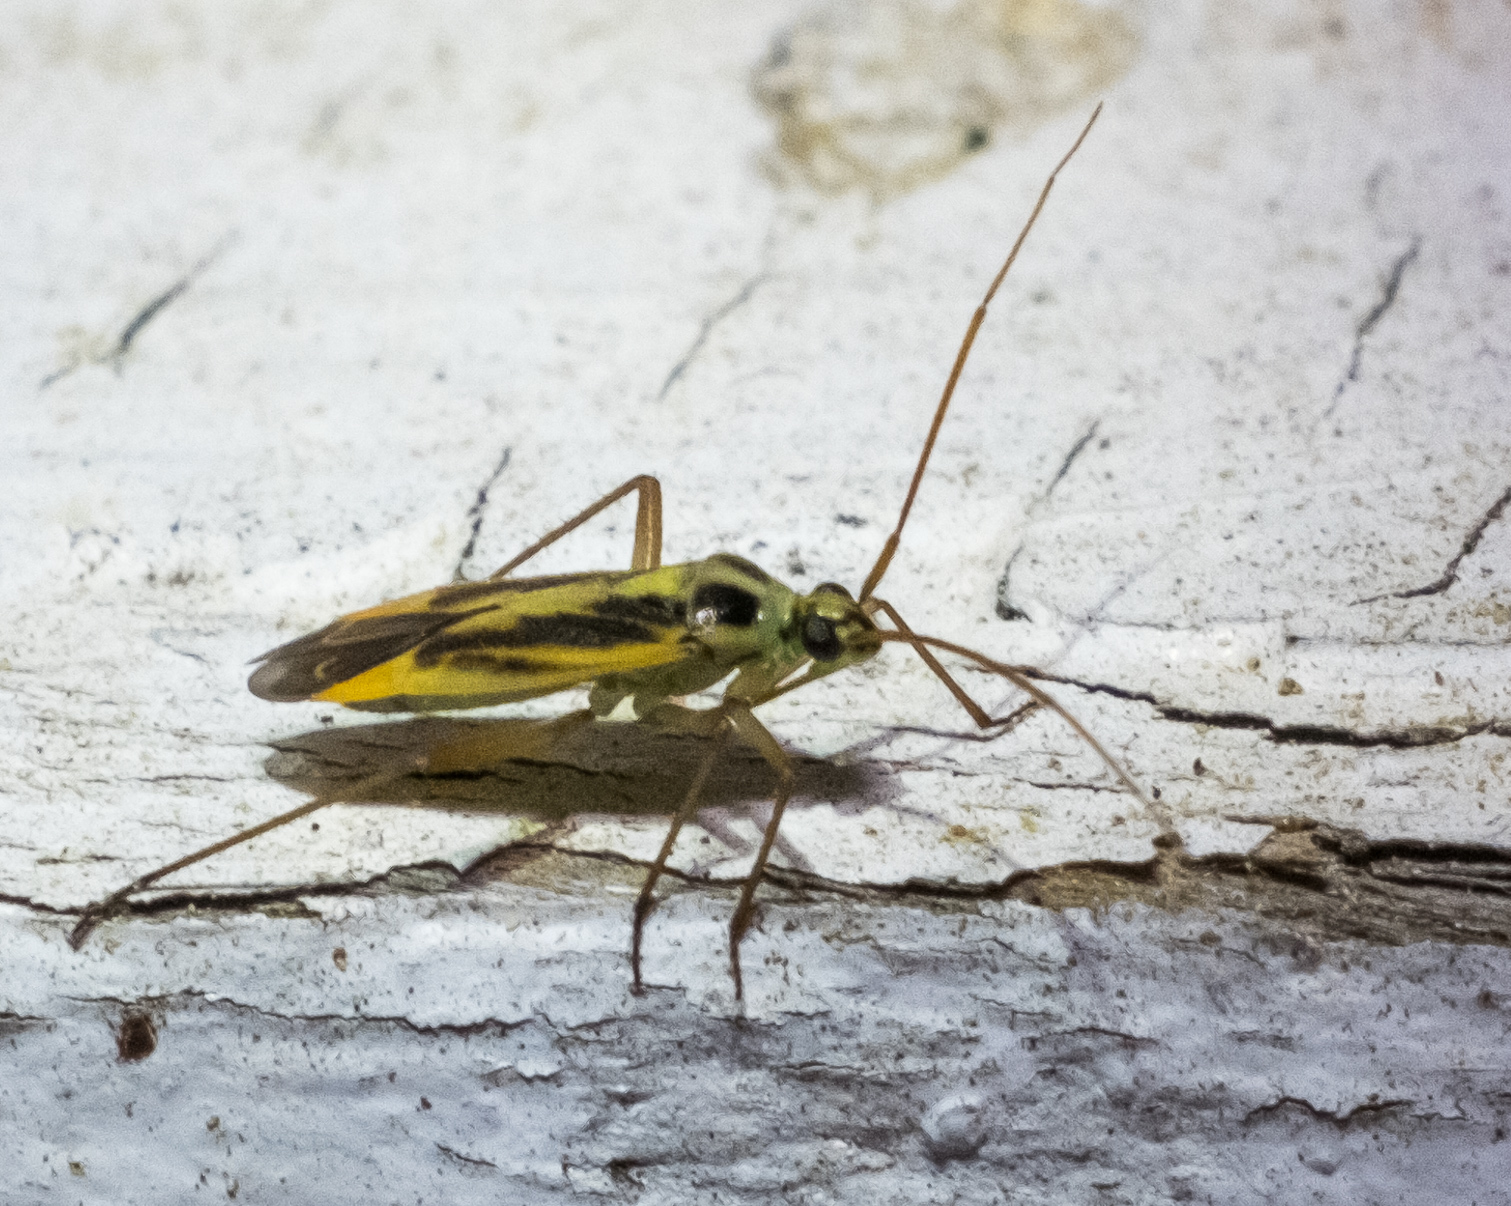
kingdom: Animalia
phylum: Arthropoda
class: Insecta
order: Hemiptera
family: Miridae
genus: Stenotus
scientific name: Stenotus binotatus
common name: Plant bug
